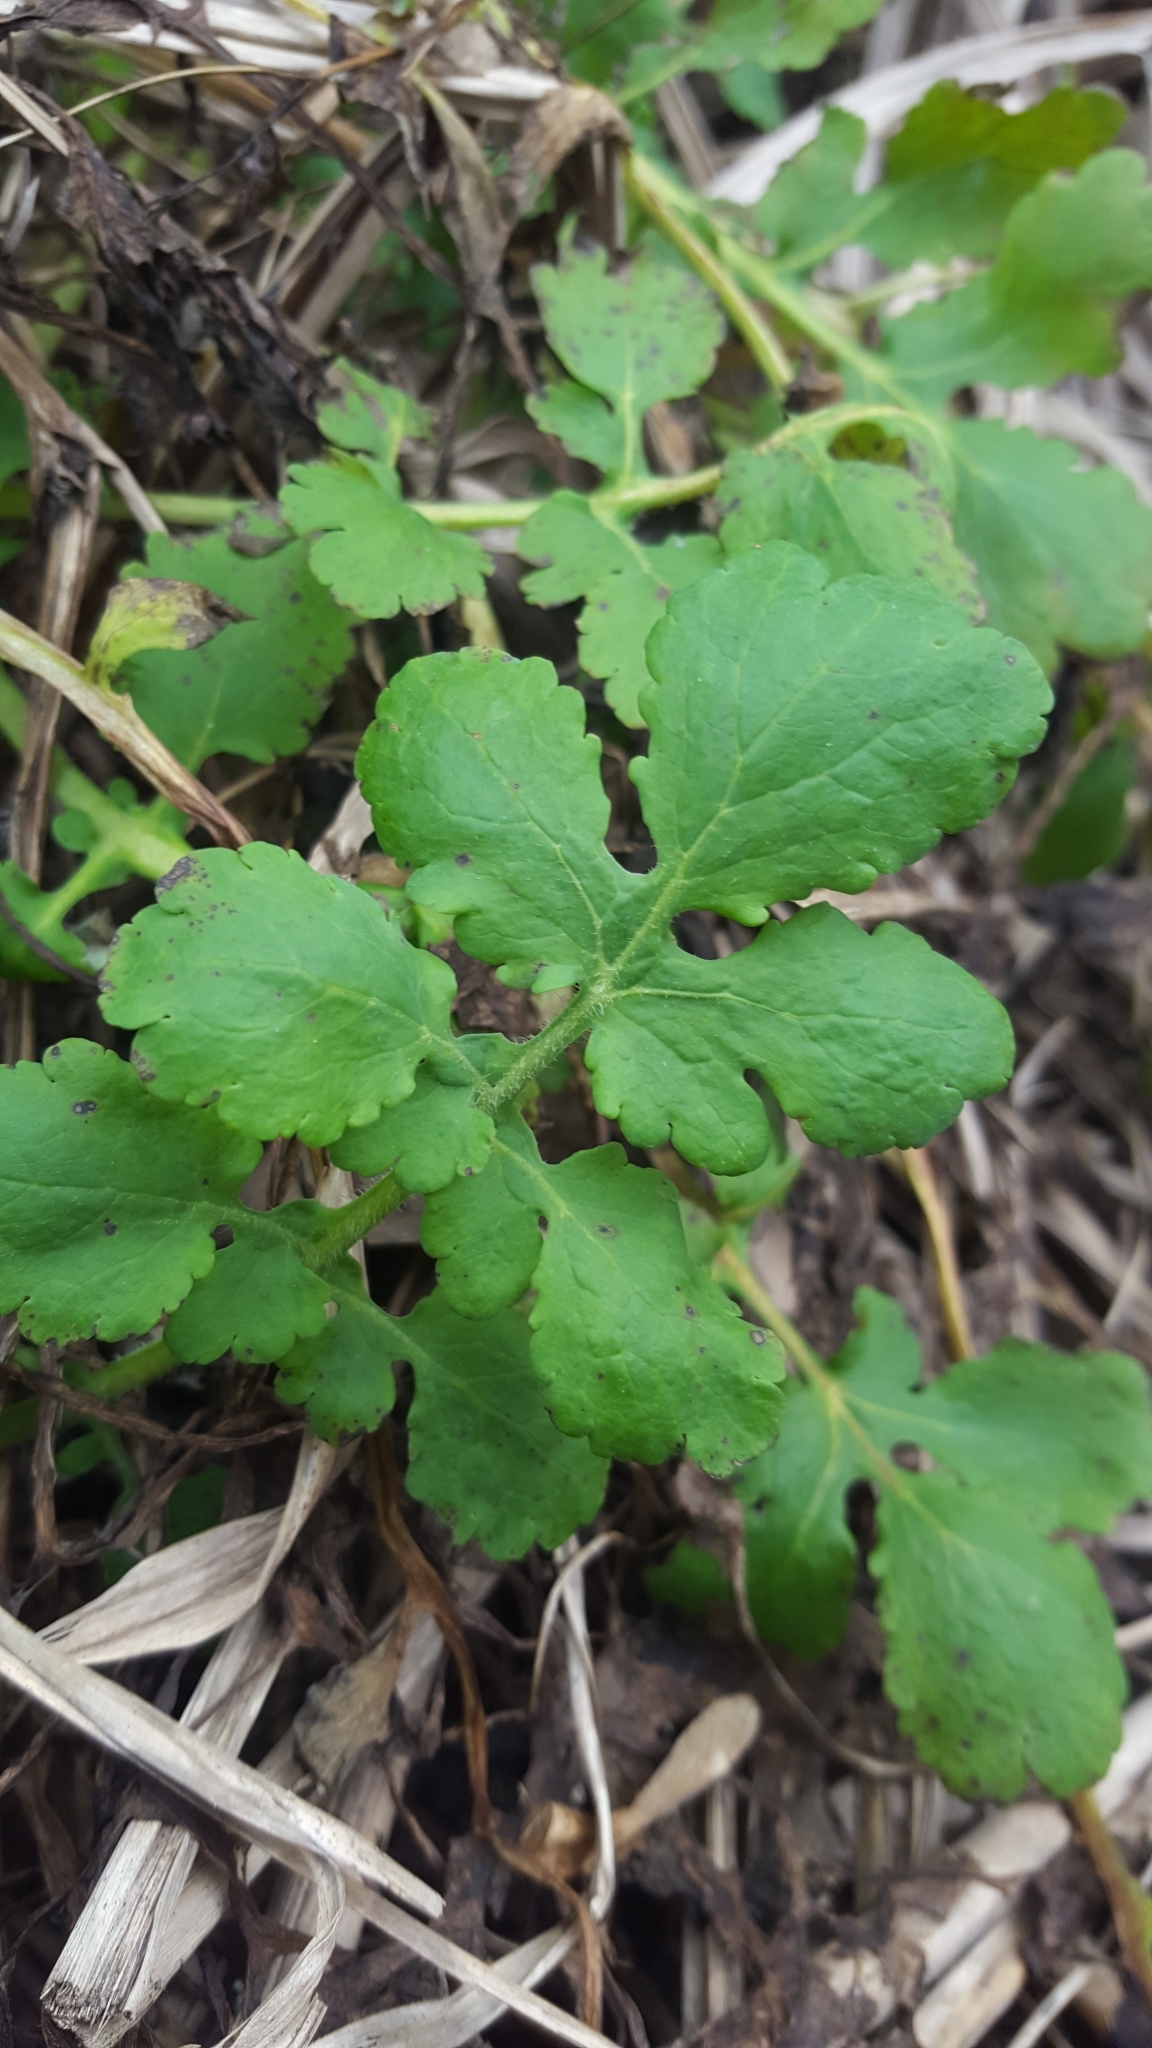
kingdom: Plantae
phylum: Tracheophyta
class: Magnoliopsida
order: Ranunculales
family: Papaveraceae
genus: Chelidonium
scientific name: Chelidonium majus
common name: Greater celandine
